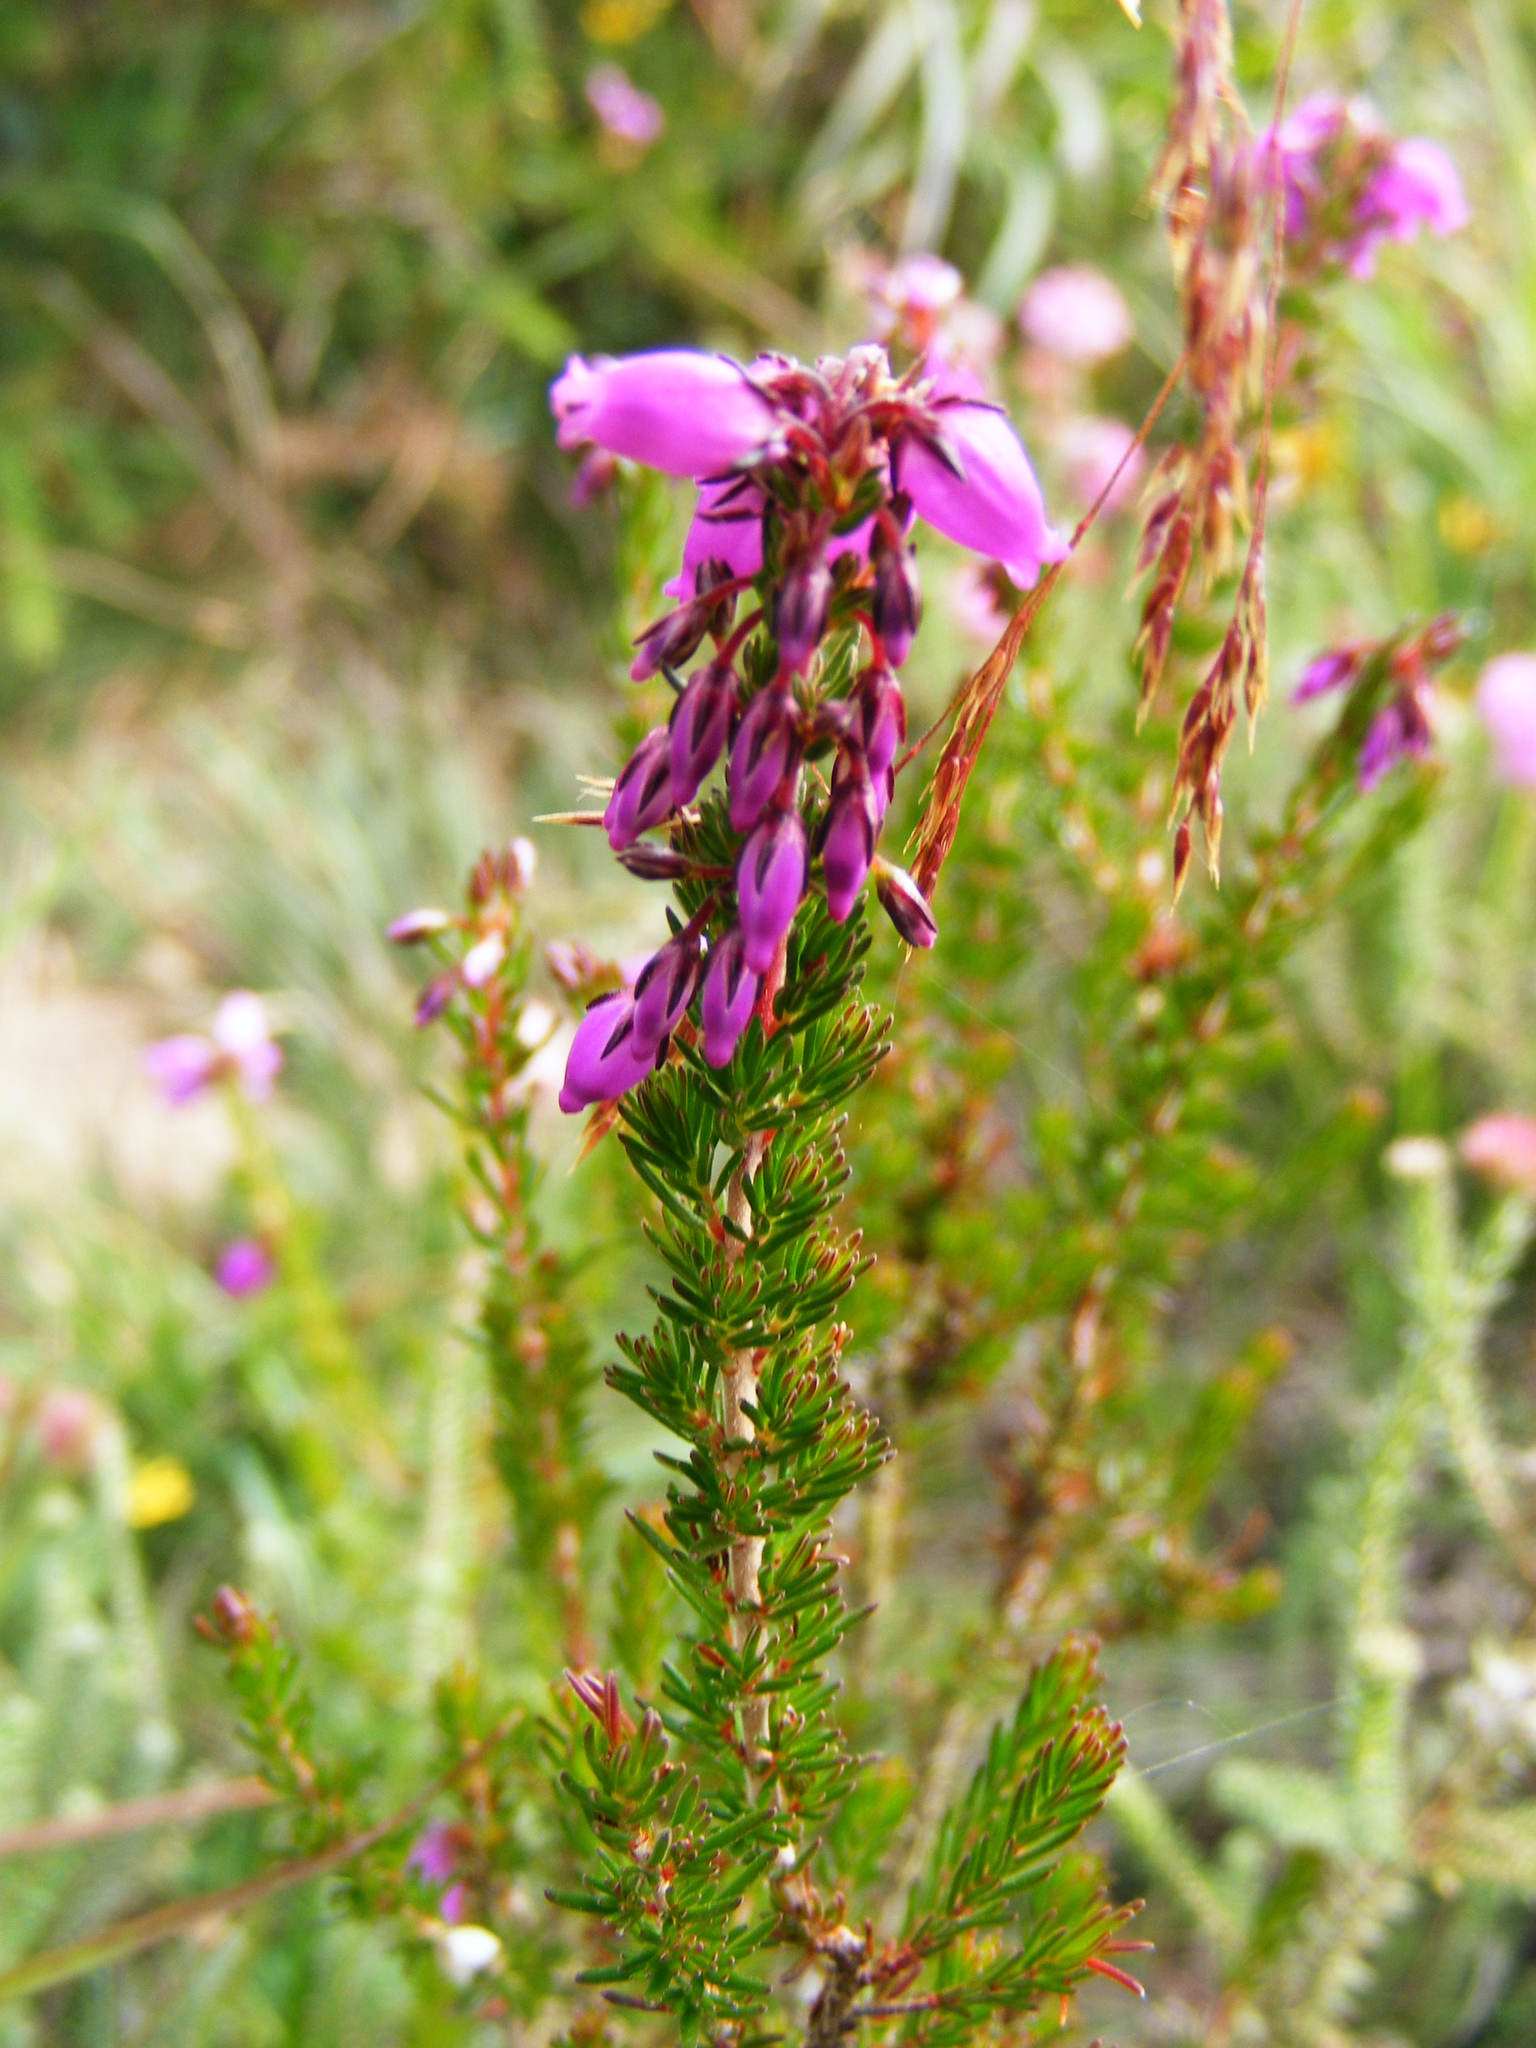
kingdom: Plantae
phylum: Tracheophyta
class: Magnoliopsida
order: Ericales
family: Ericaceae
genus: Erica
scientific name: Erica cinerea
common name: Bell heather
